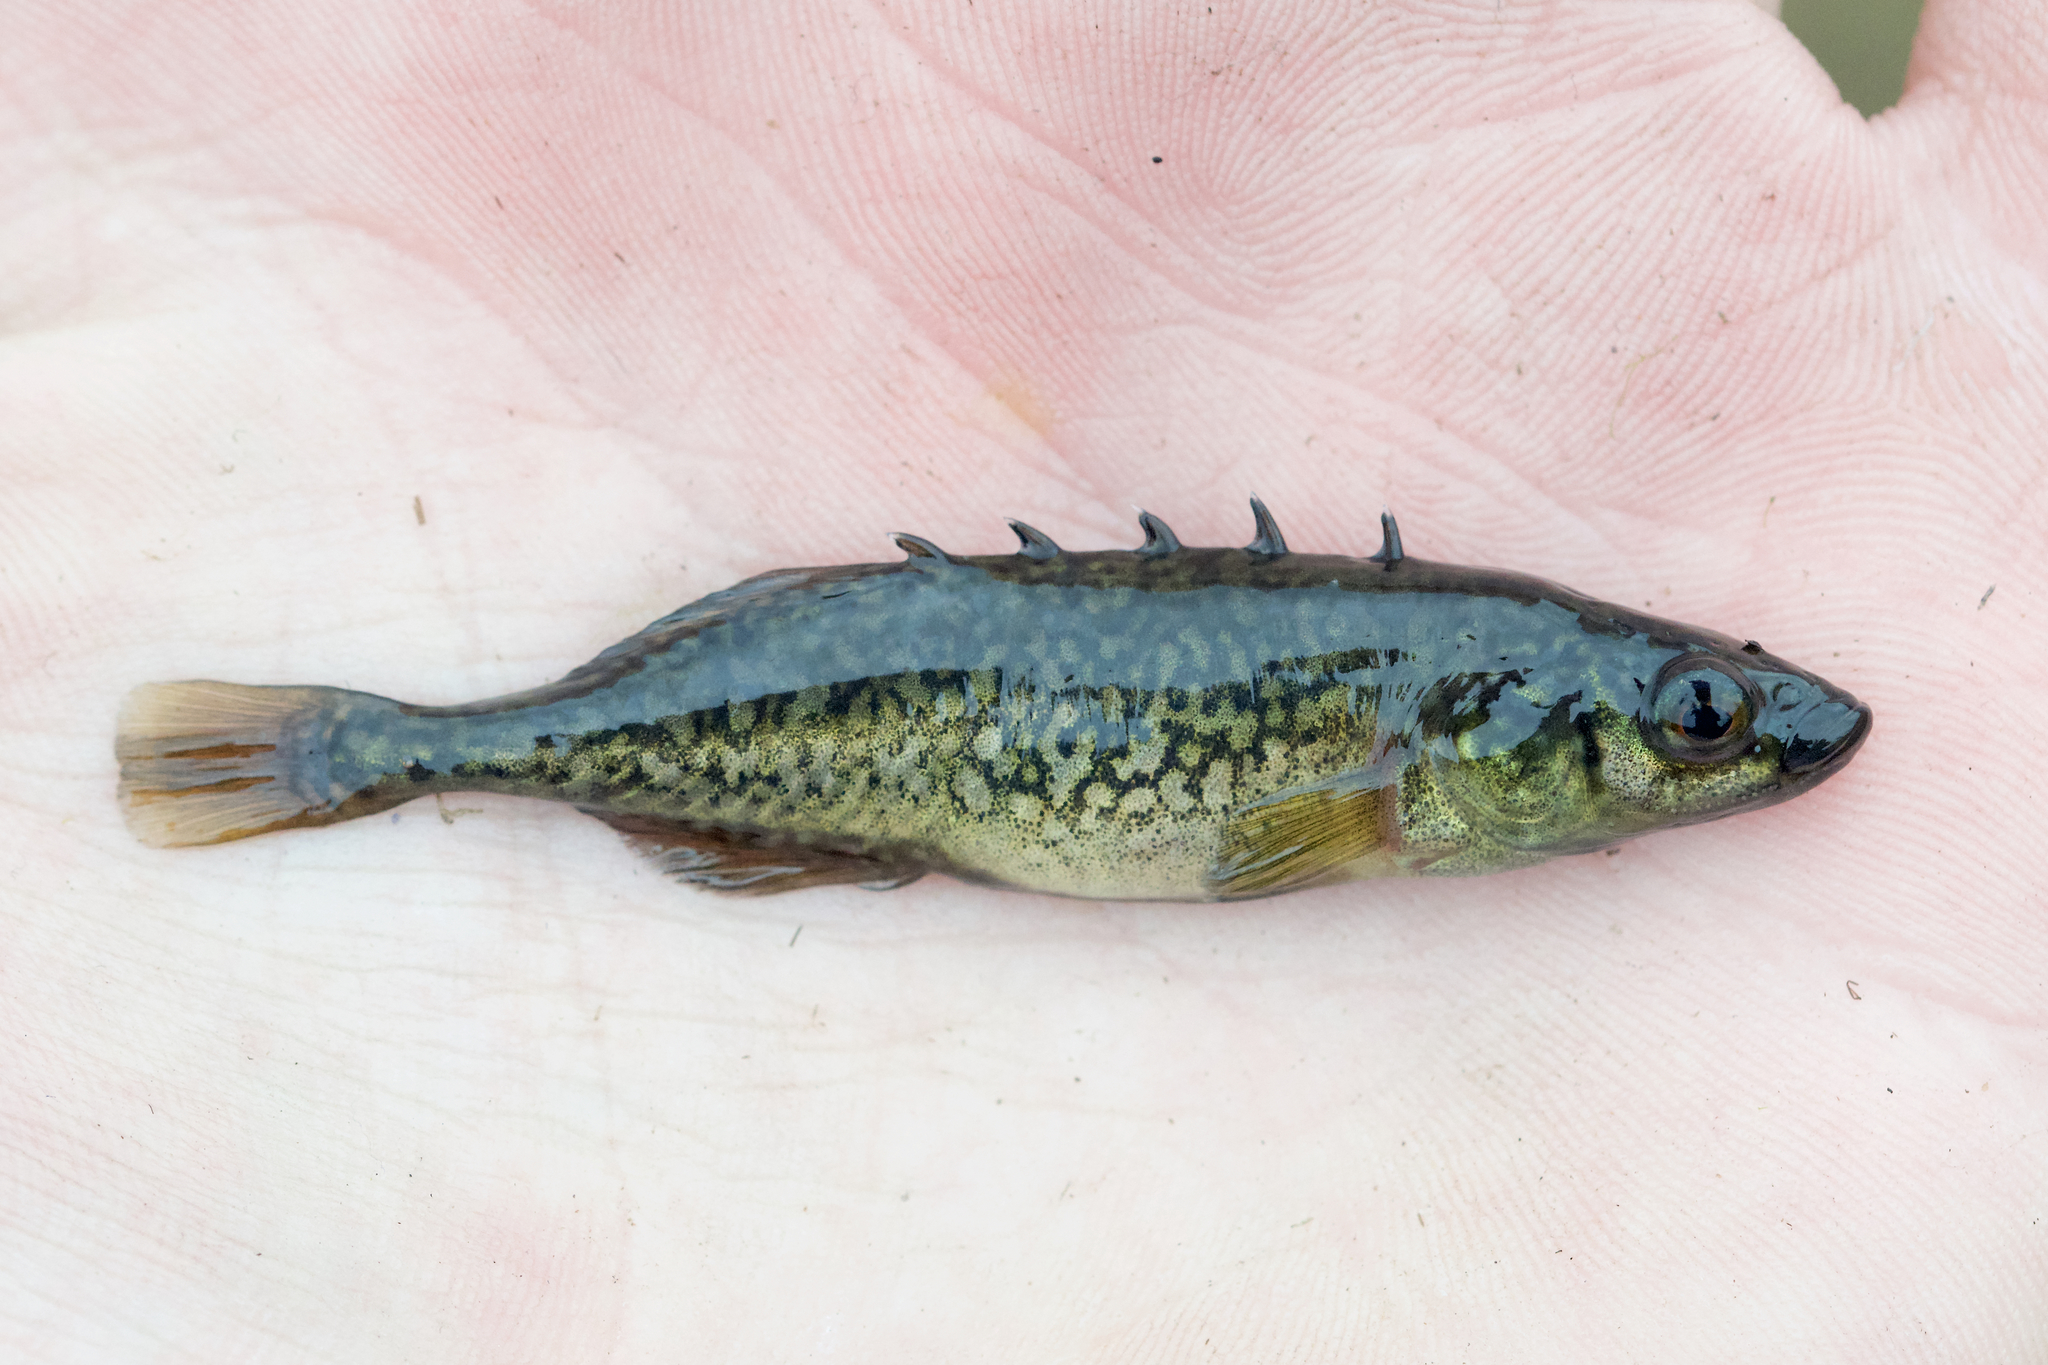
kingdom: Animalia
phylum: Chordata
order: Gasterosteiformes
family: Gasterosteidae
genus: Culaea
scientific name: Culaea inconstans
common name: Brook stickleback
